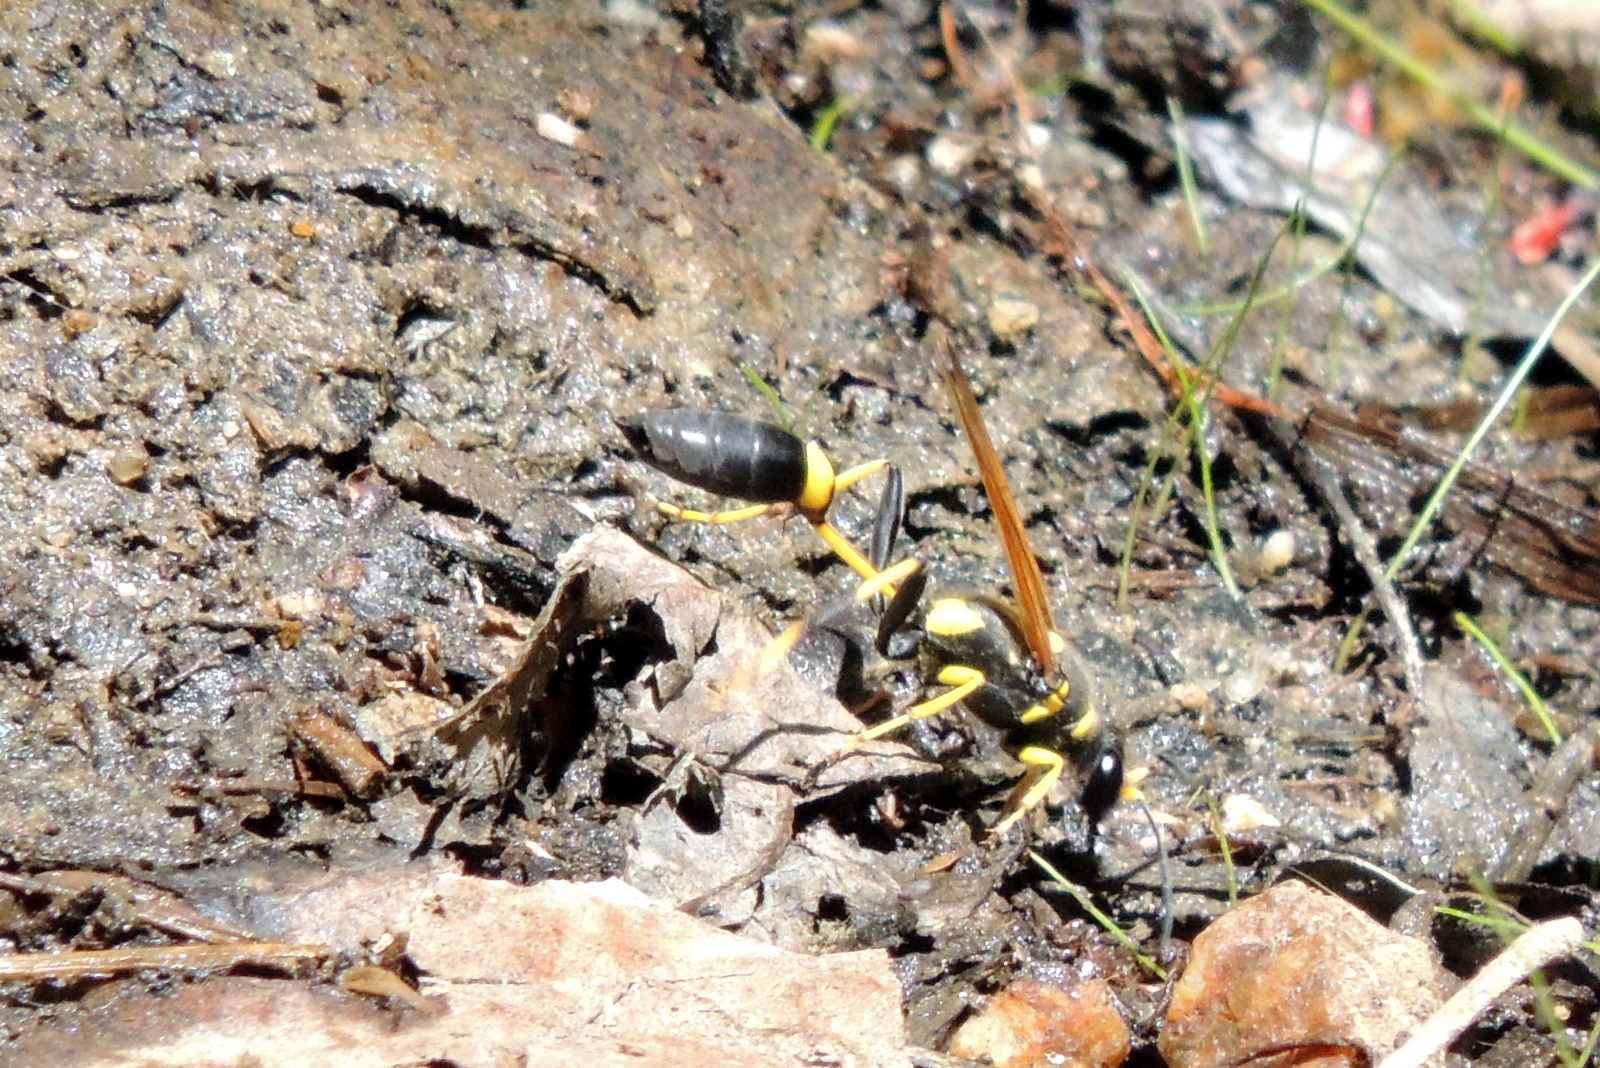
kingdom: Animalia
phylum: Arthropoda
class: Insecta
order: Hymenoptera
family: Sphecidae
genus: Sceliphron
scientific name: Sceliphron caementarium
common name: Mud dauber
